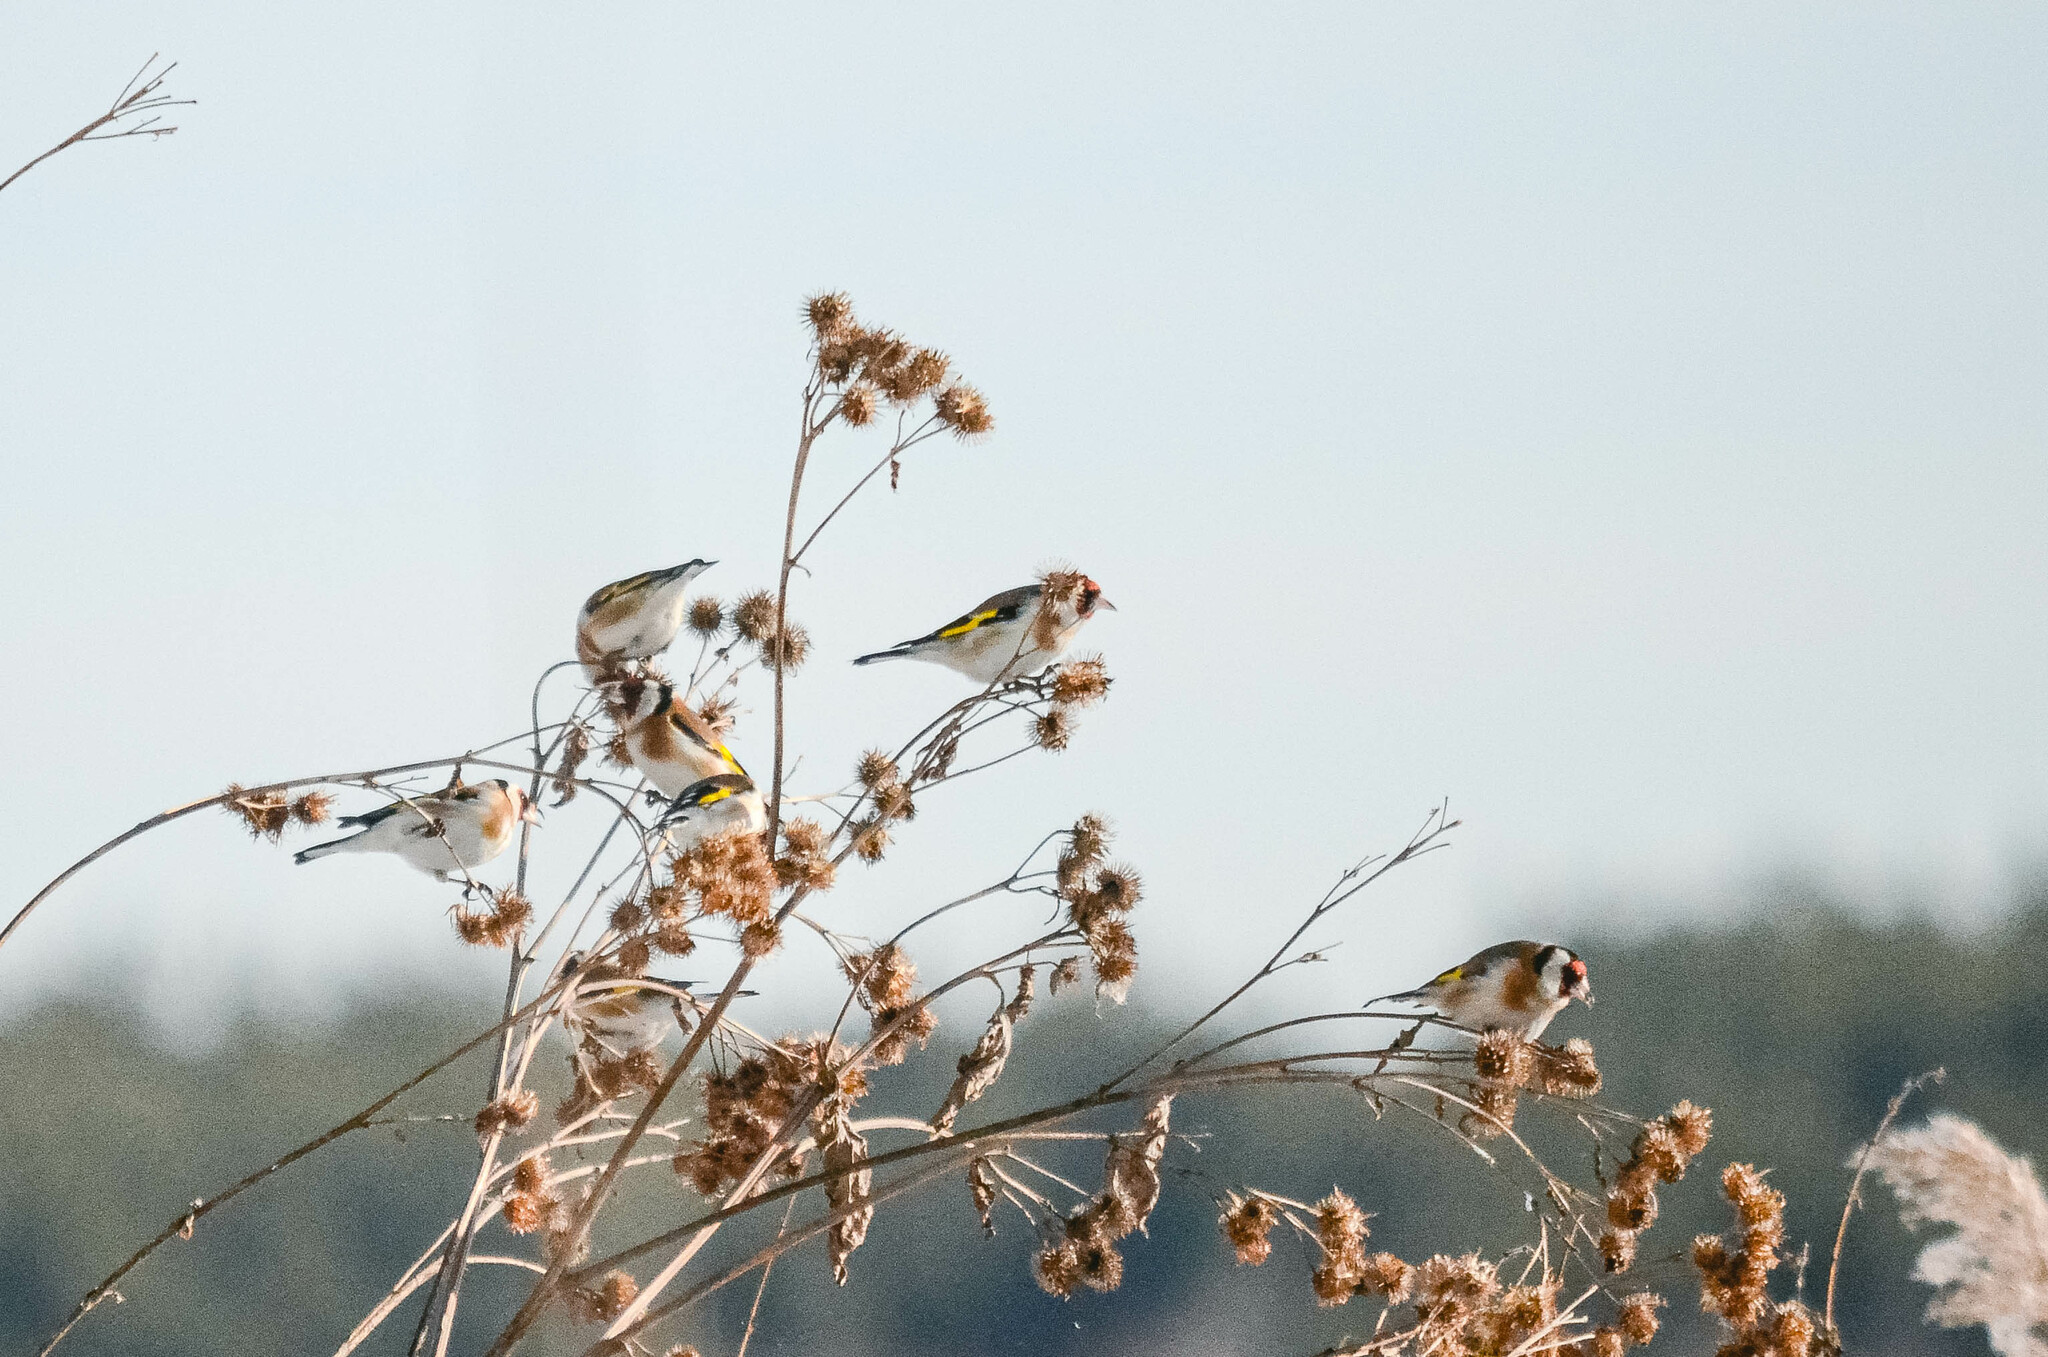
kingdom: Animalia
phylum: Chordata
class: Aves
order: Passeriformes
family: Fringillidae
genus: Carduelis
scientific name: Carduelis carduelis
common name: European goldfinch
